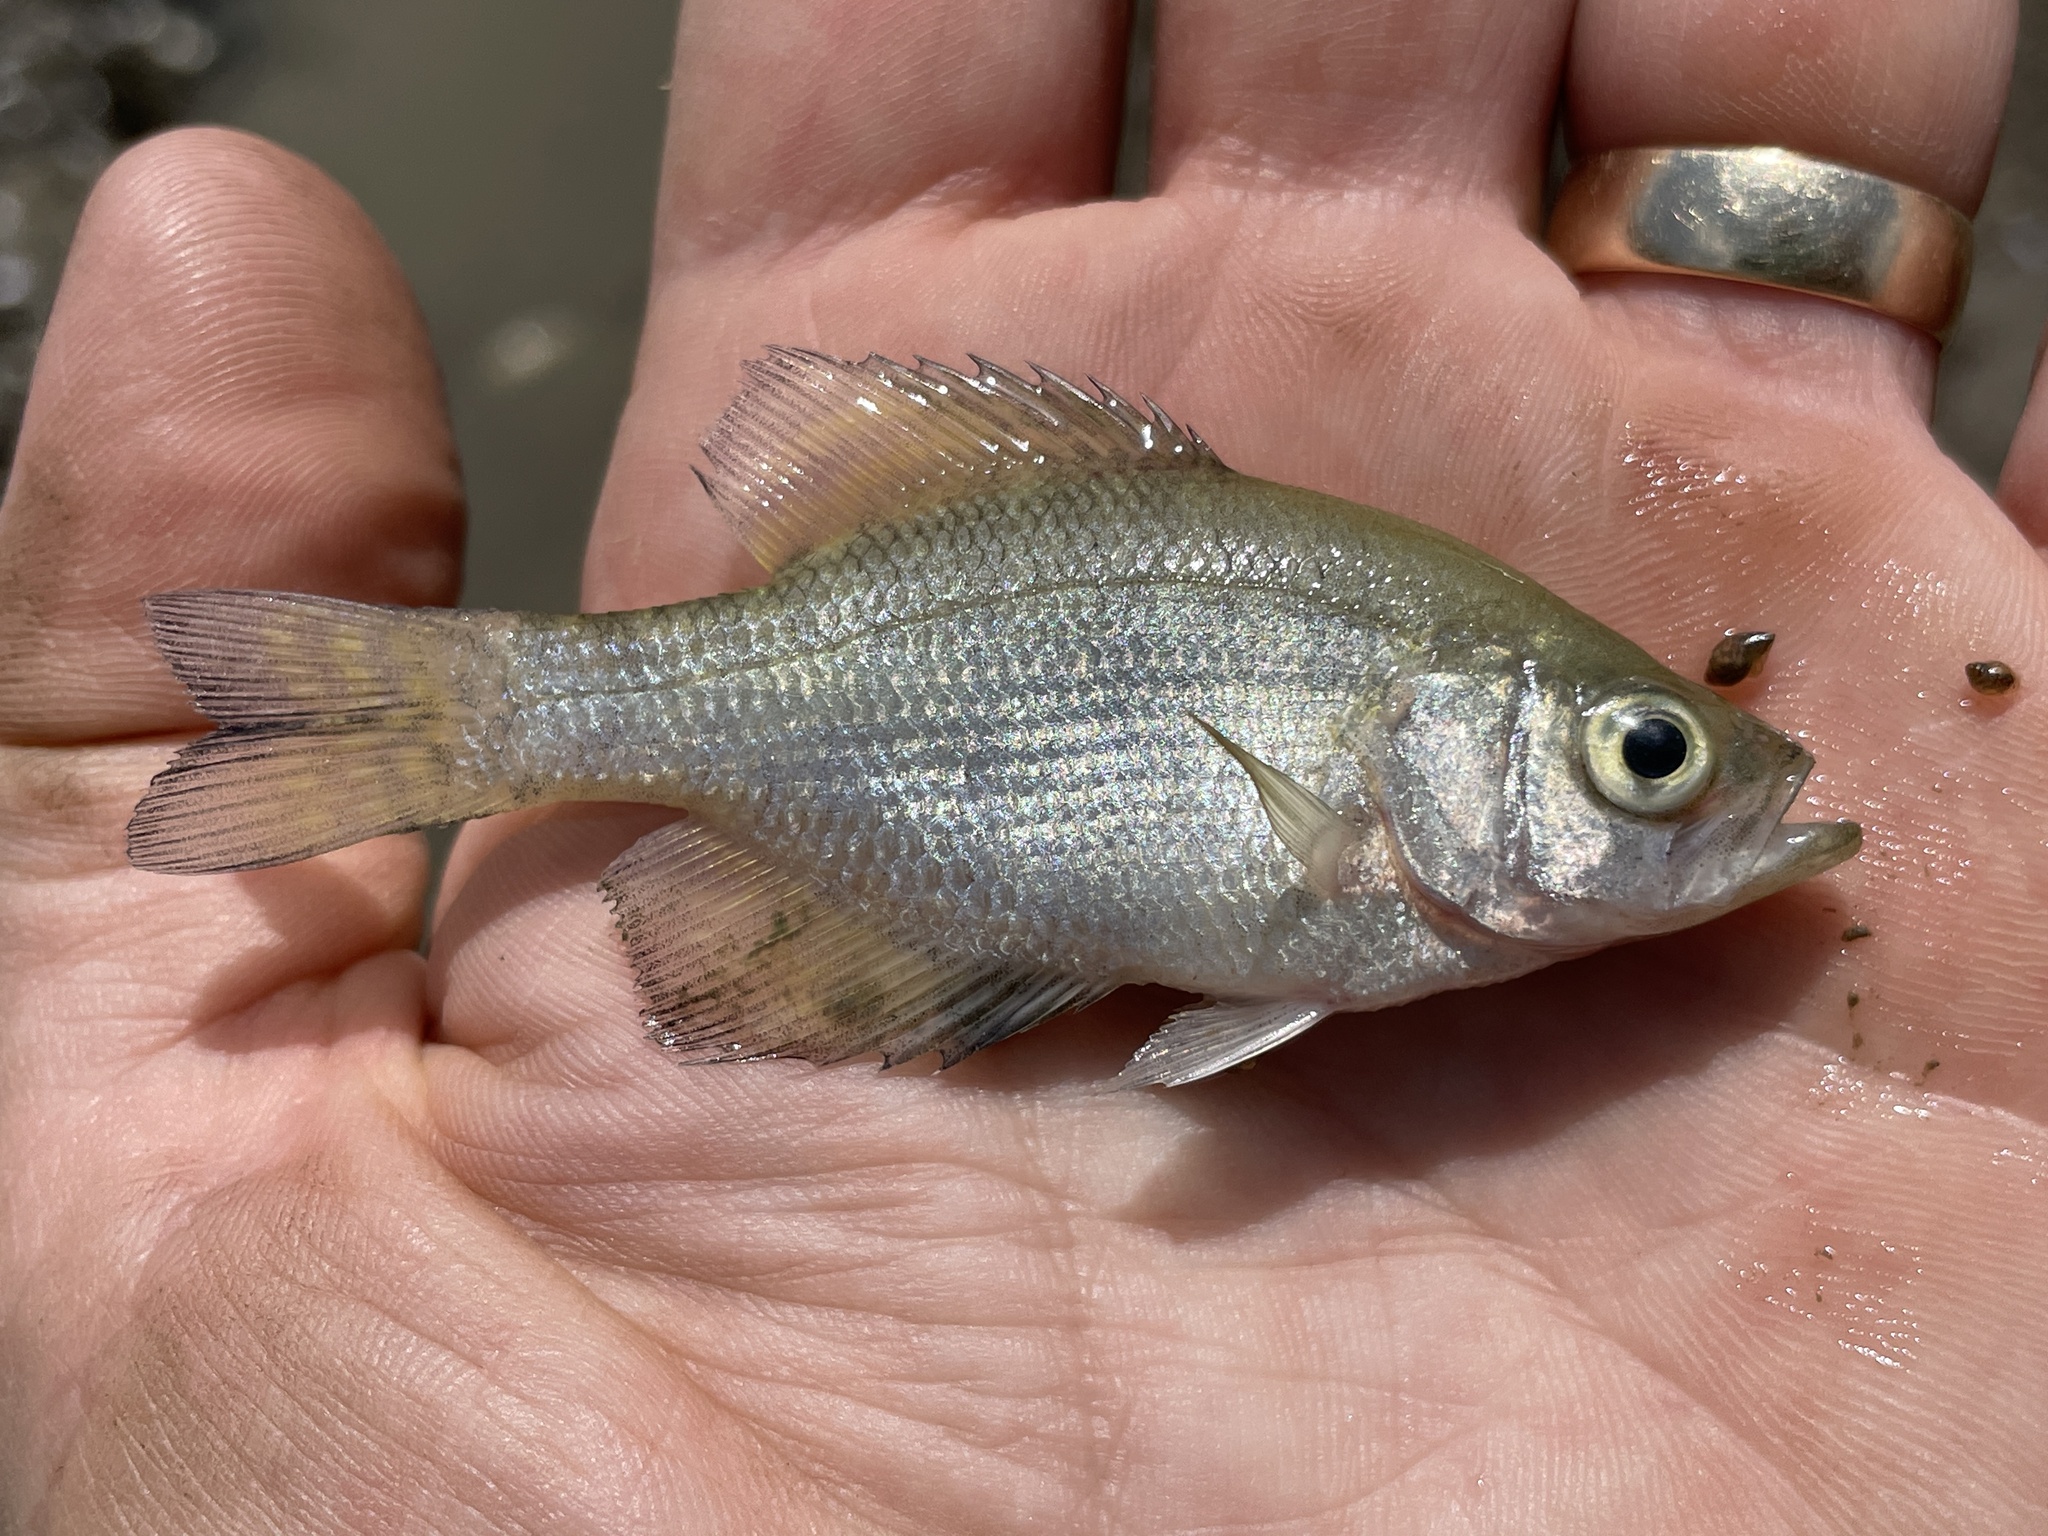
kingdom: Animalia
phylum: Chordata
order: Perciformes
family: Centrarchidae
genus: Pomoxis
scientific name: Pomoxis nigromaculatus
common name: Black crappie
